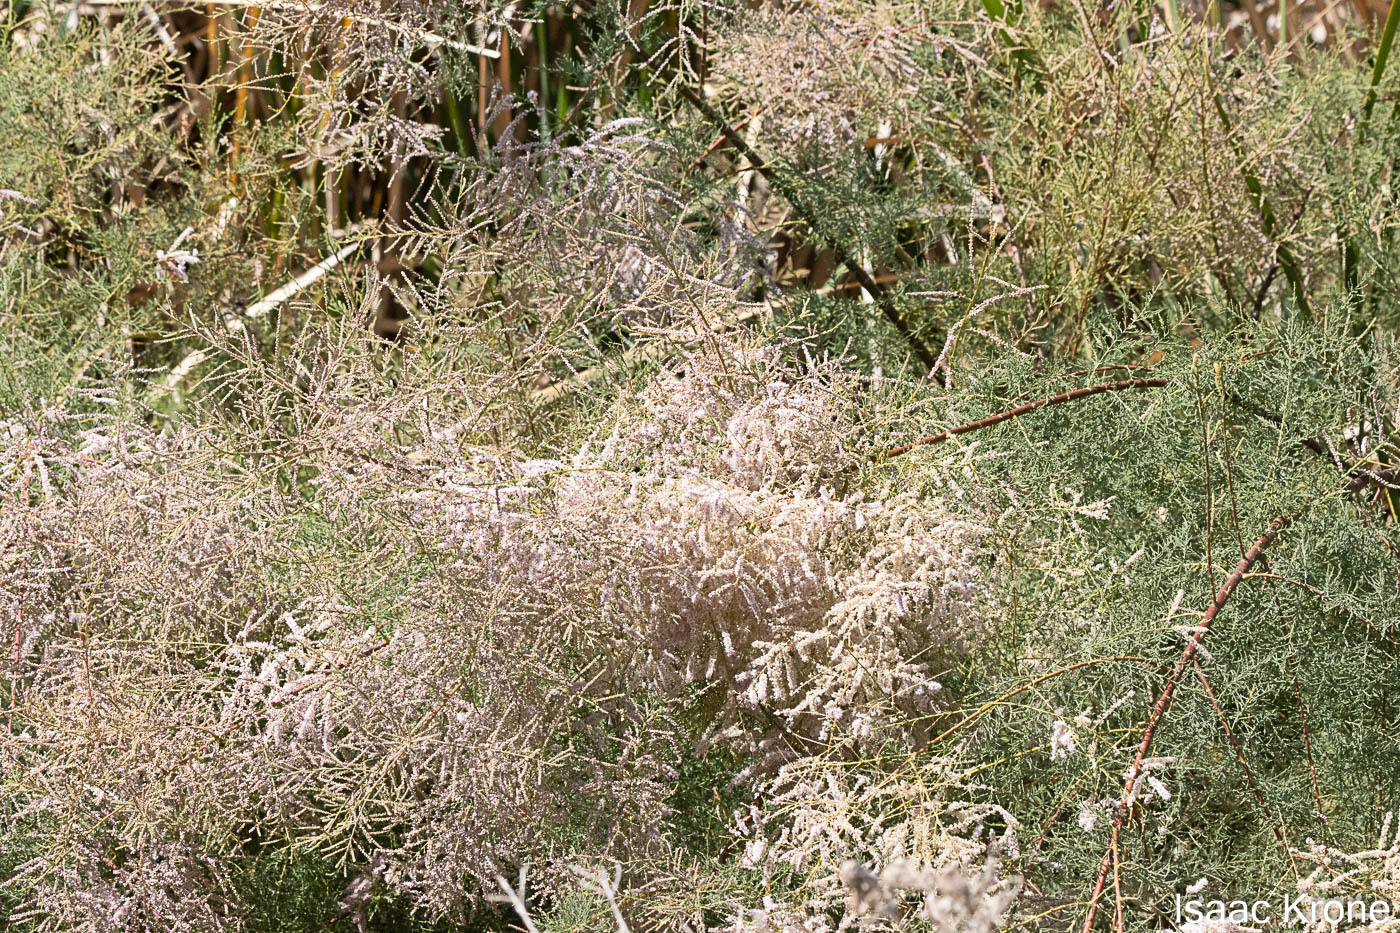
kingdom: Plantae
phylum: Tracheophyta
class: Magnoliopsida
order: Caryophyllales
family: Tamaricaceae
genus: Tamarix
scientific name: Tamarix
